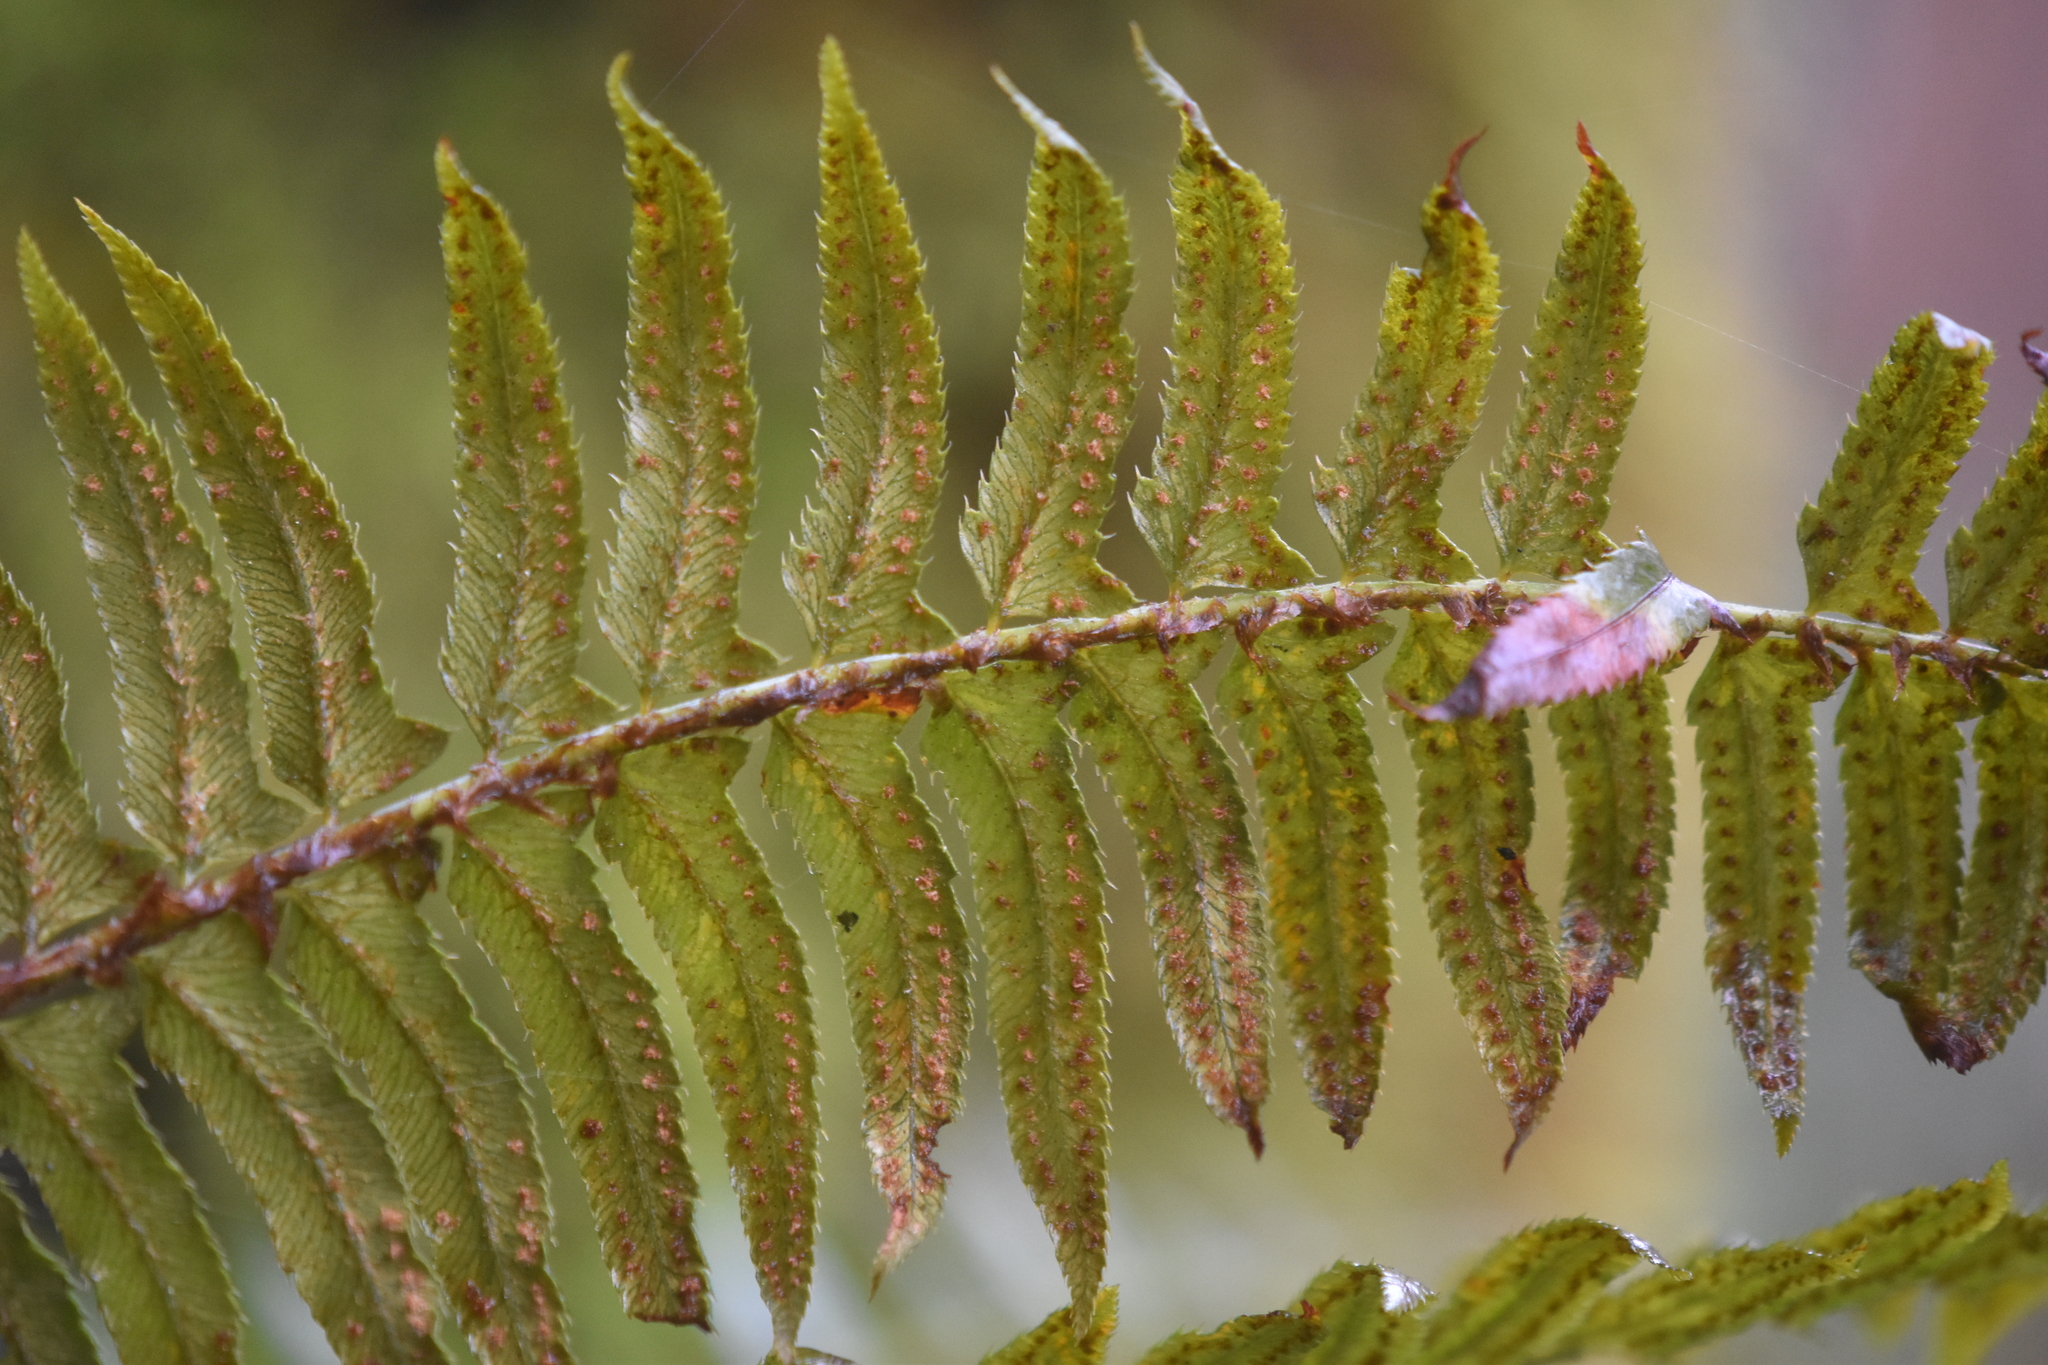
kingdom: Plantae
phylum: Tracheophyta
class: Polypodiopsida
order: Polypodiales
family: Dryopteridaceae
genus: Polystichum
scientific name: Polystichum munitum
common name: Western sword-fern
